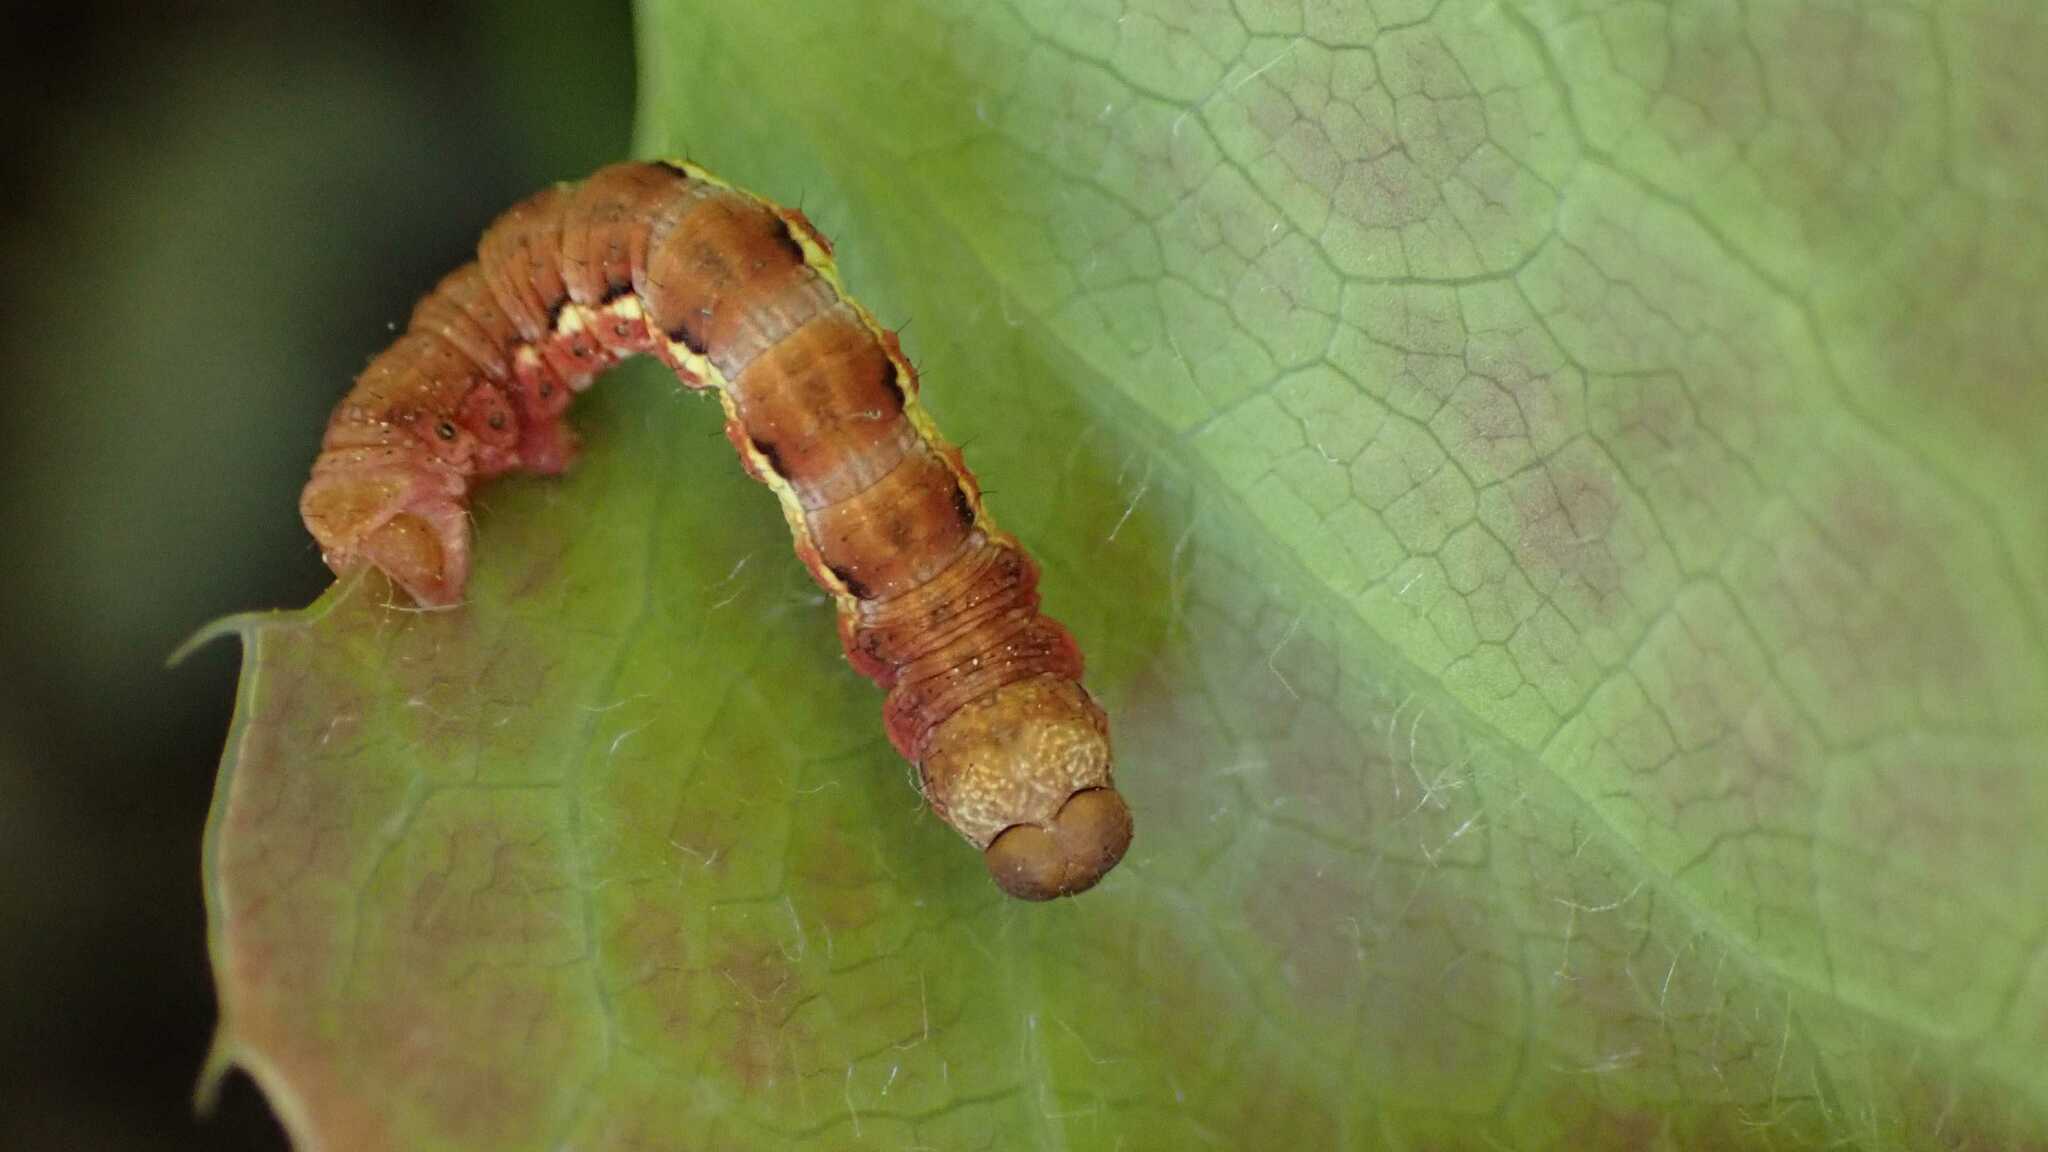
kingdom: Animalia
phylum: Arthropoda
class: Insecta
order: Lepidoptera
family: Geometridae
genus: Erannis
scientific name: Erannis defoliaria
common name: Mottled umber
